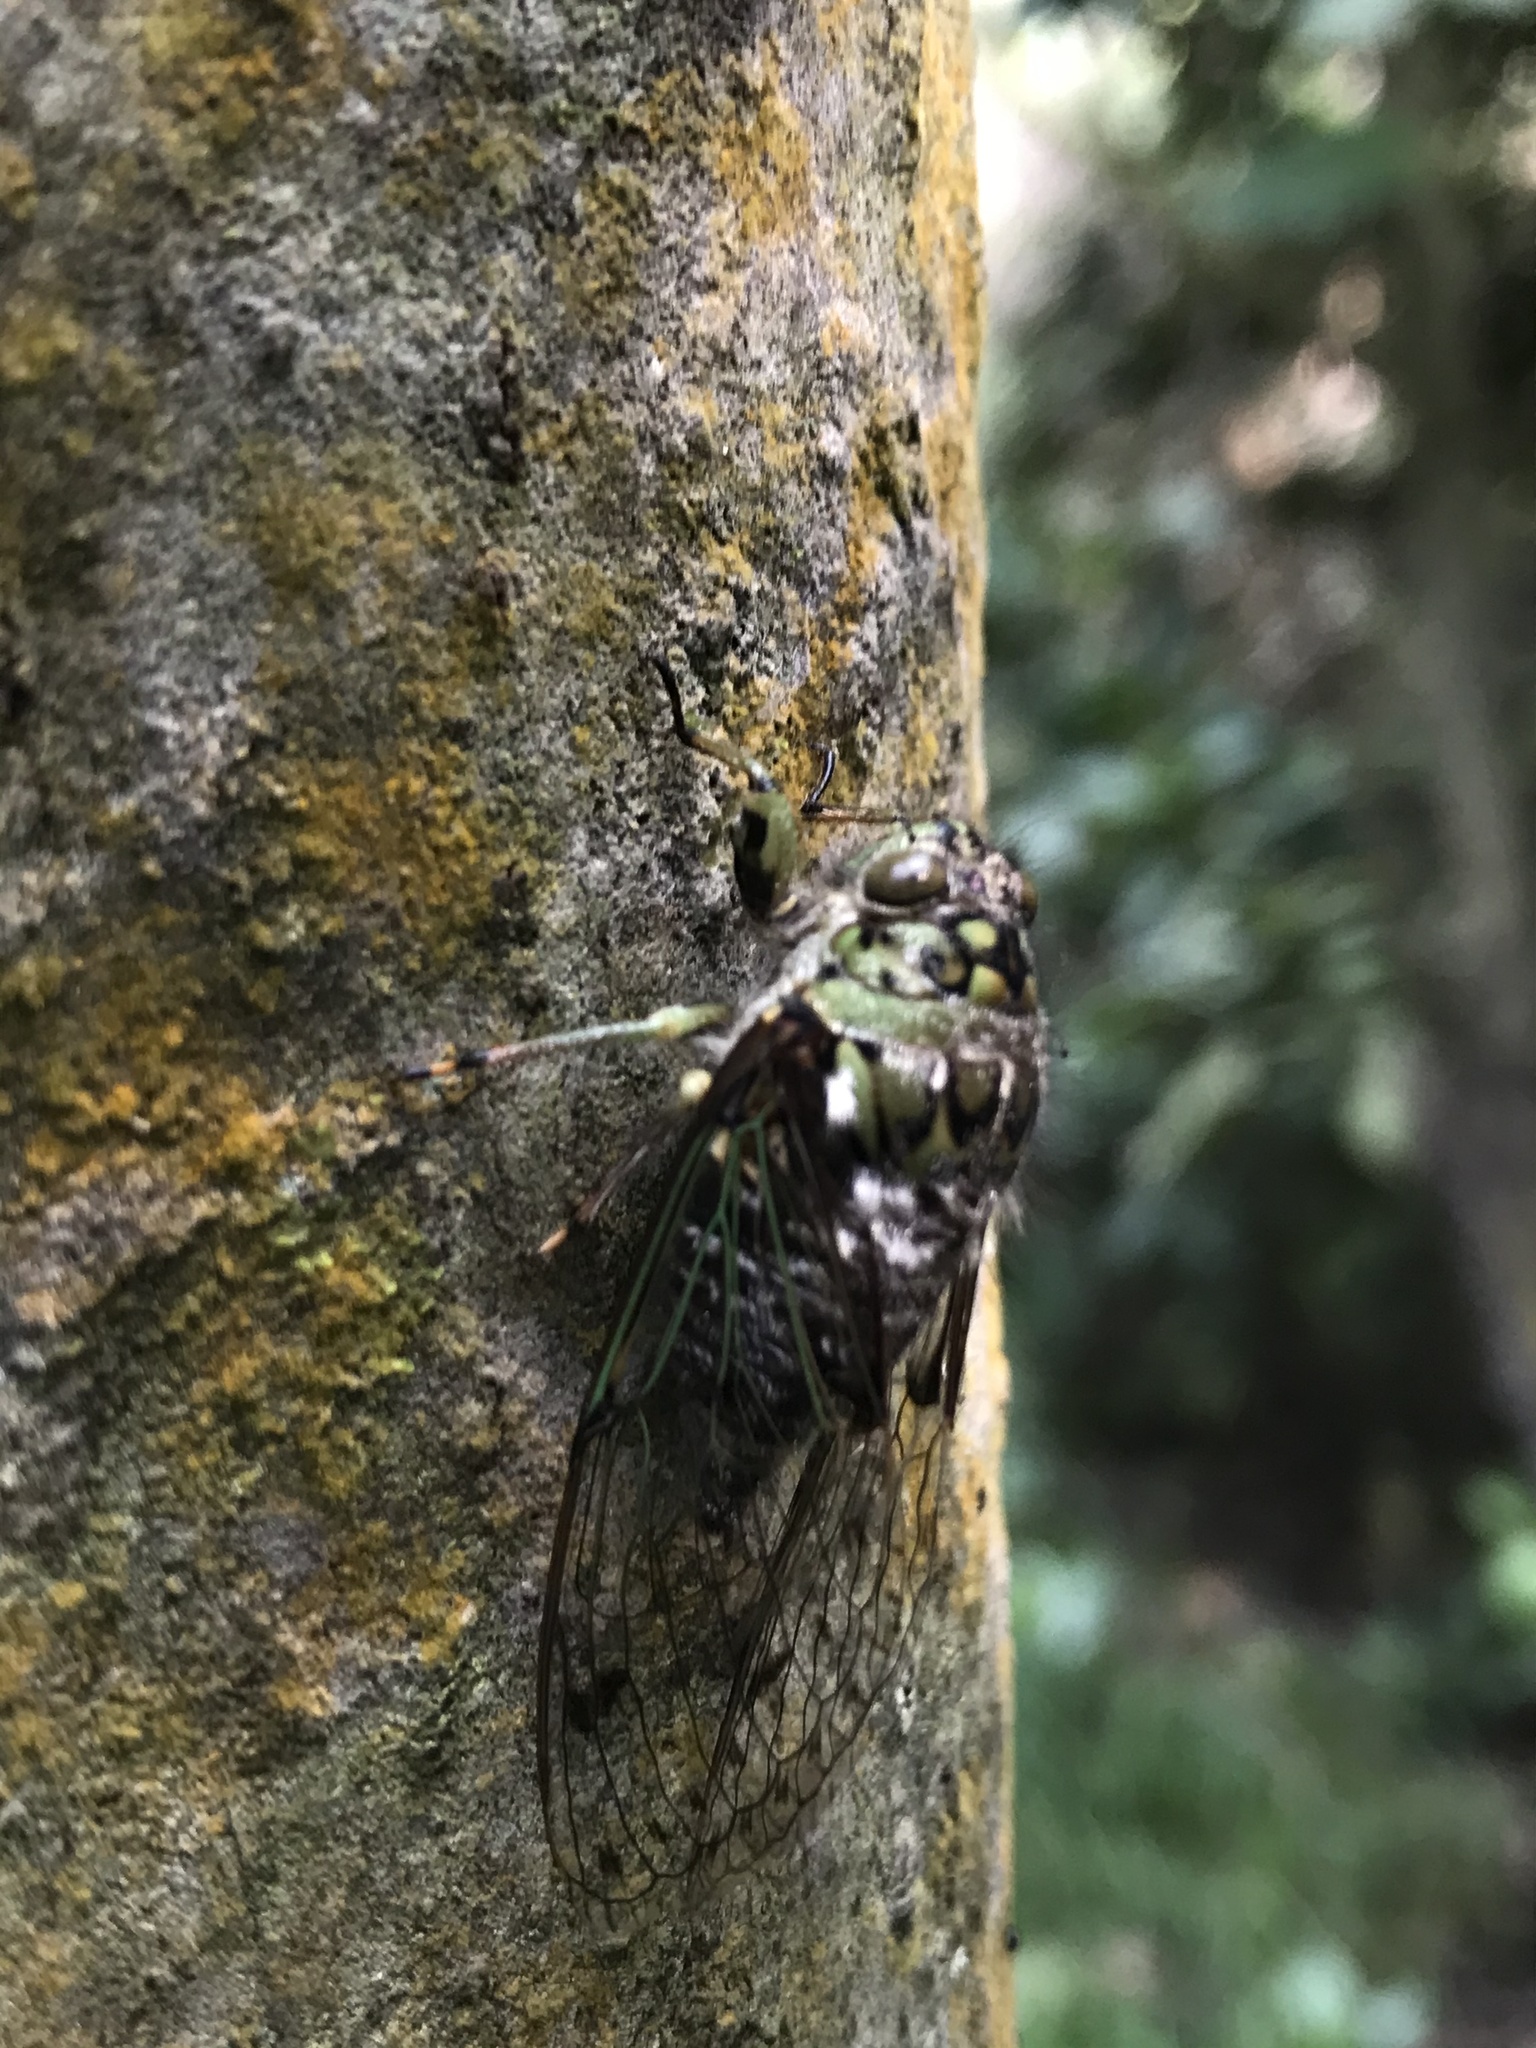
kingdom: Animalia
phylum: Arthropoda
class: Insecta
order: Hemiptera
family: Cicadidae
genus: Carineta
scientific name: Carineta trivittata
